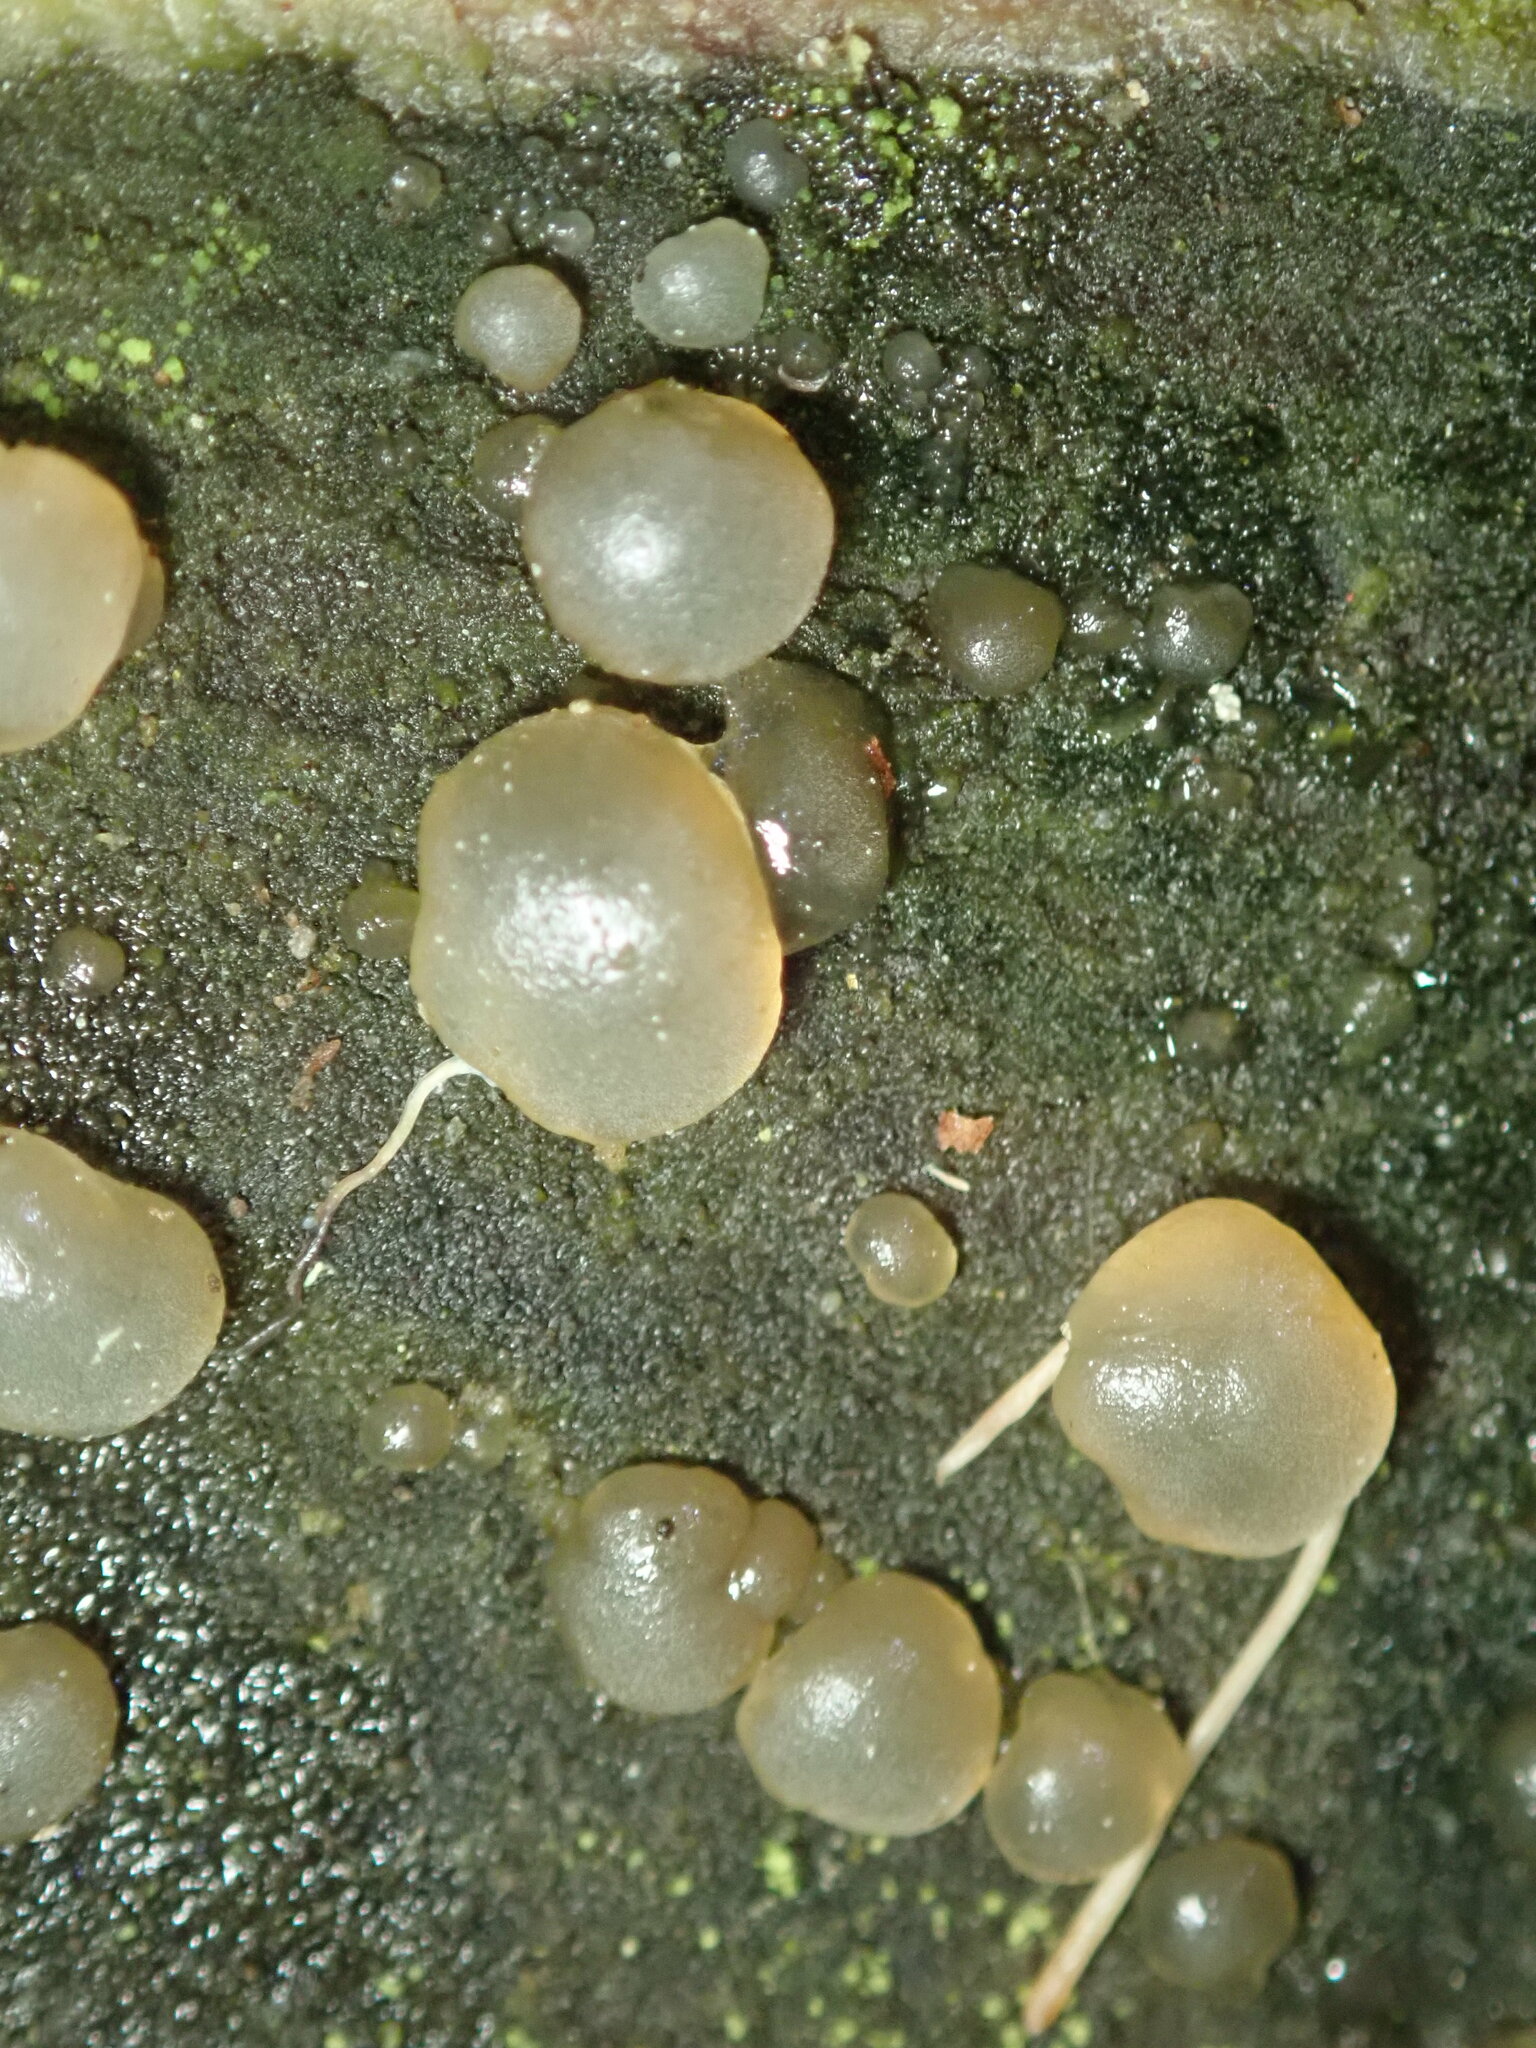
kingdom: Fungi
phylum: Basidiomycota
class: Agaricomycetes
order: Auriculariales
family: Hyaloriaceae
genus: Myxarium
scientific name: Myxarium nucleatum
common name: Crystal brain fungus
